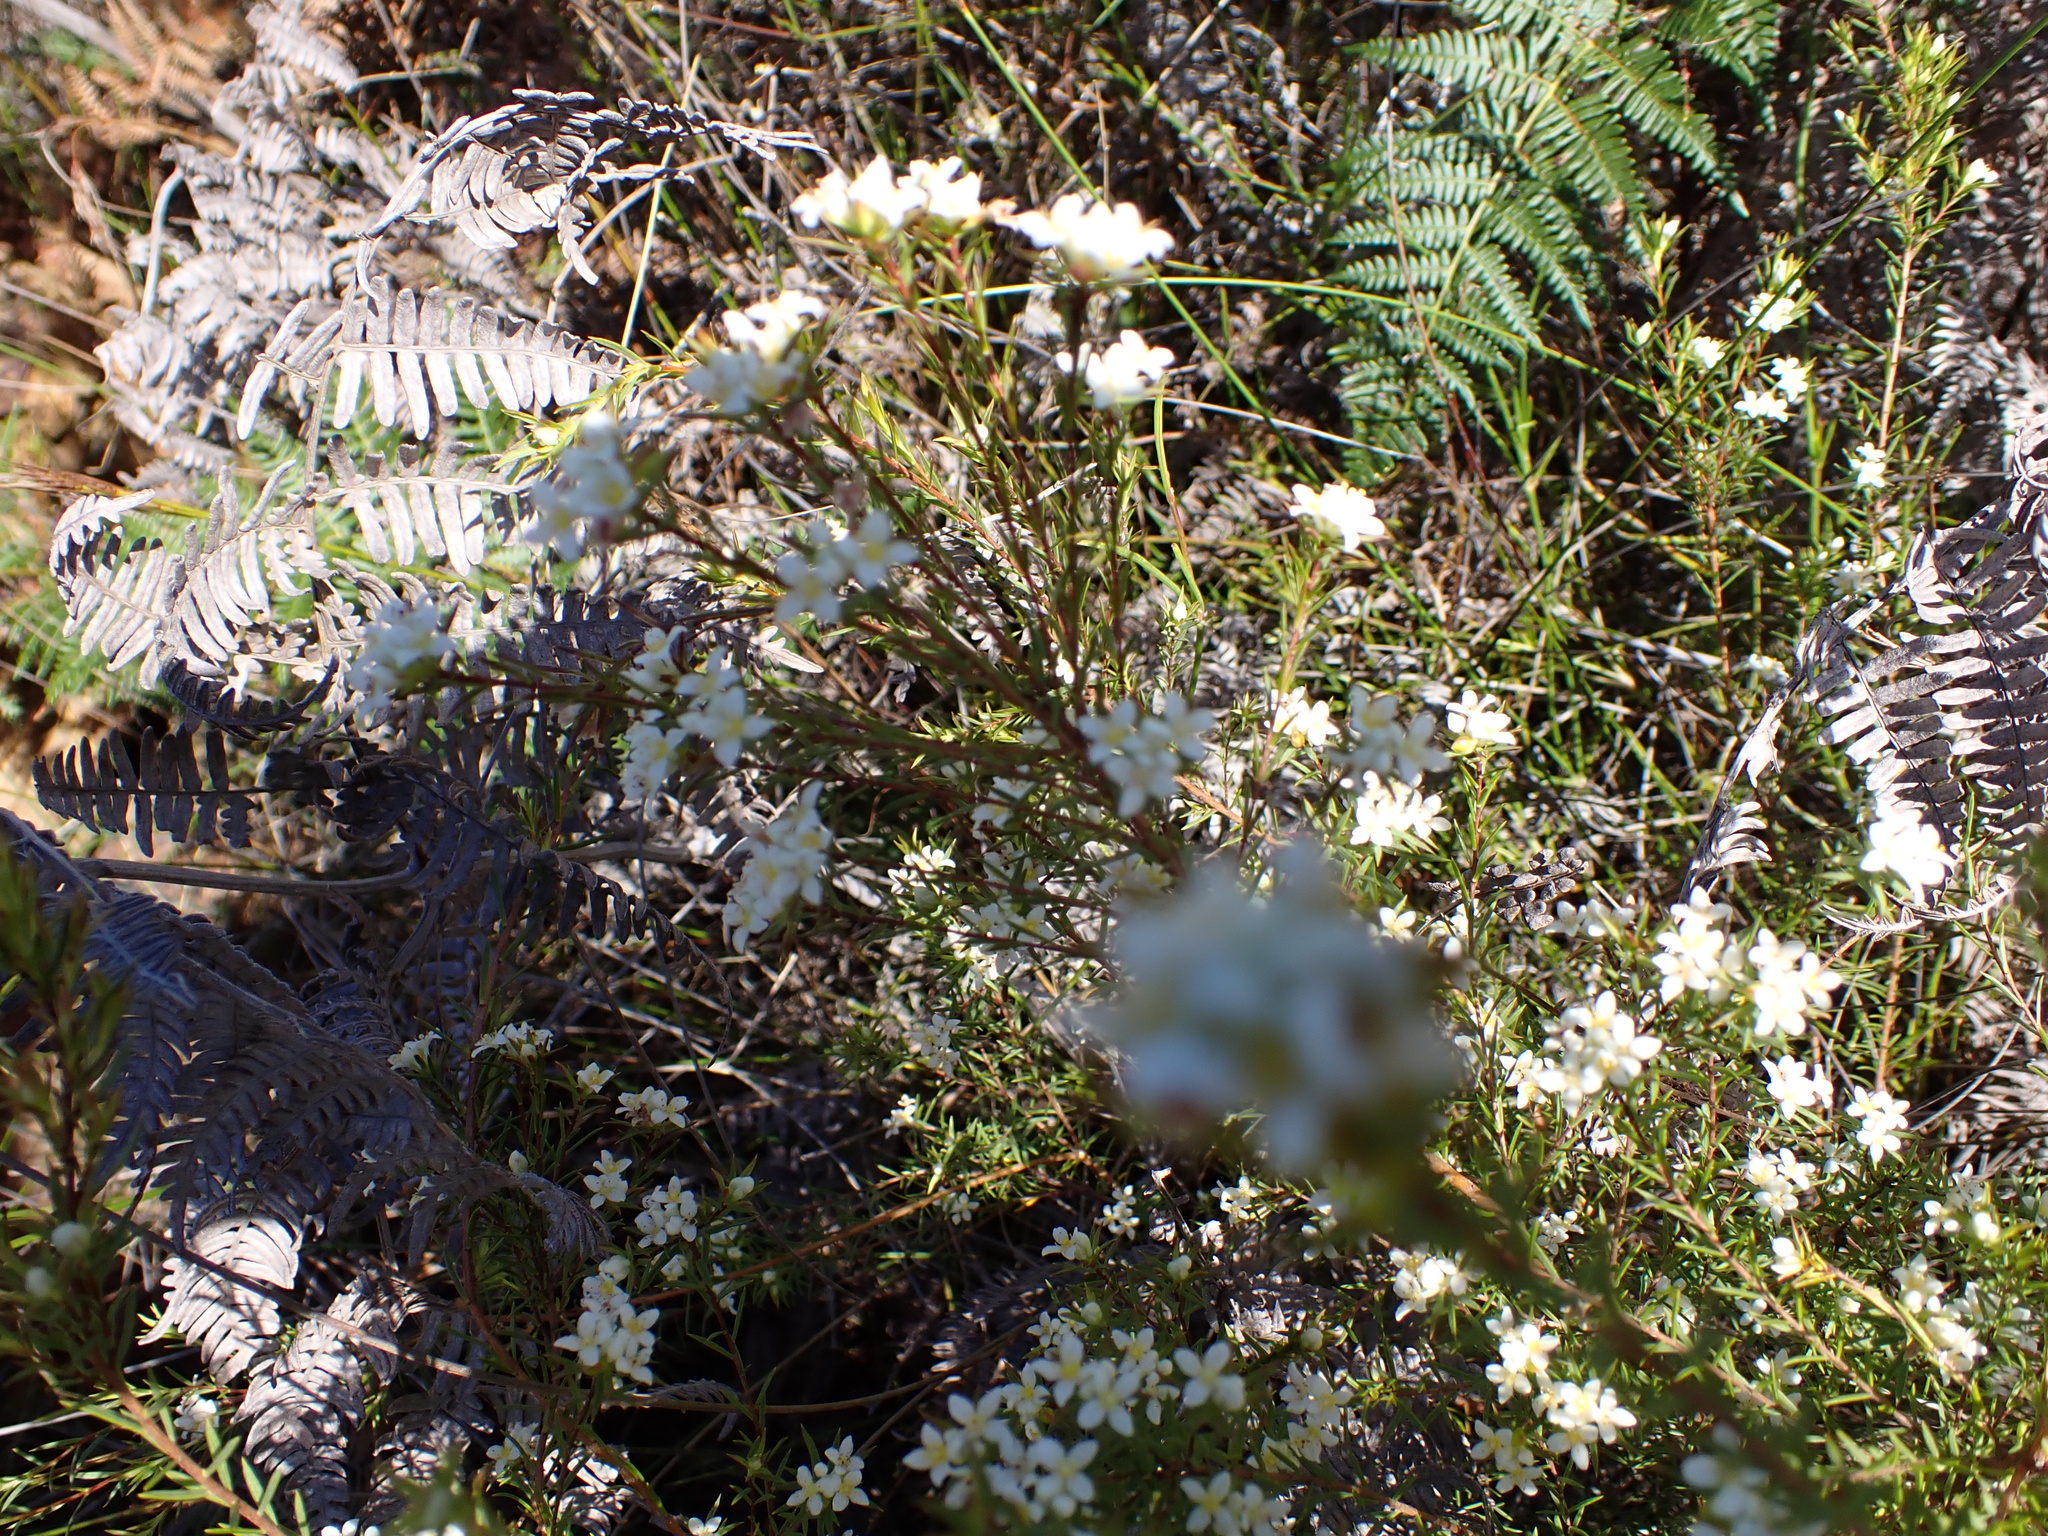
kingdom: Plantae
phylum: Tracheophyta
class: Magnoliopsida
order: Malvales
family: Thymelaeaceae
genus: Lachnaea
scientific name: Lachnaea diosmoides
